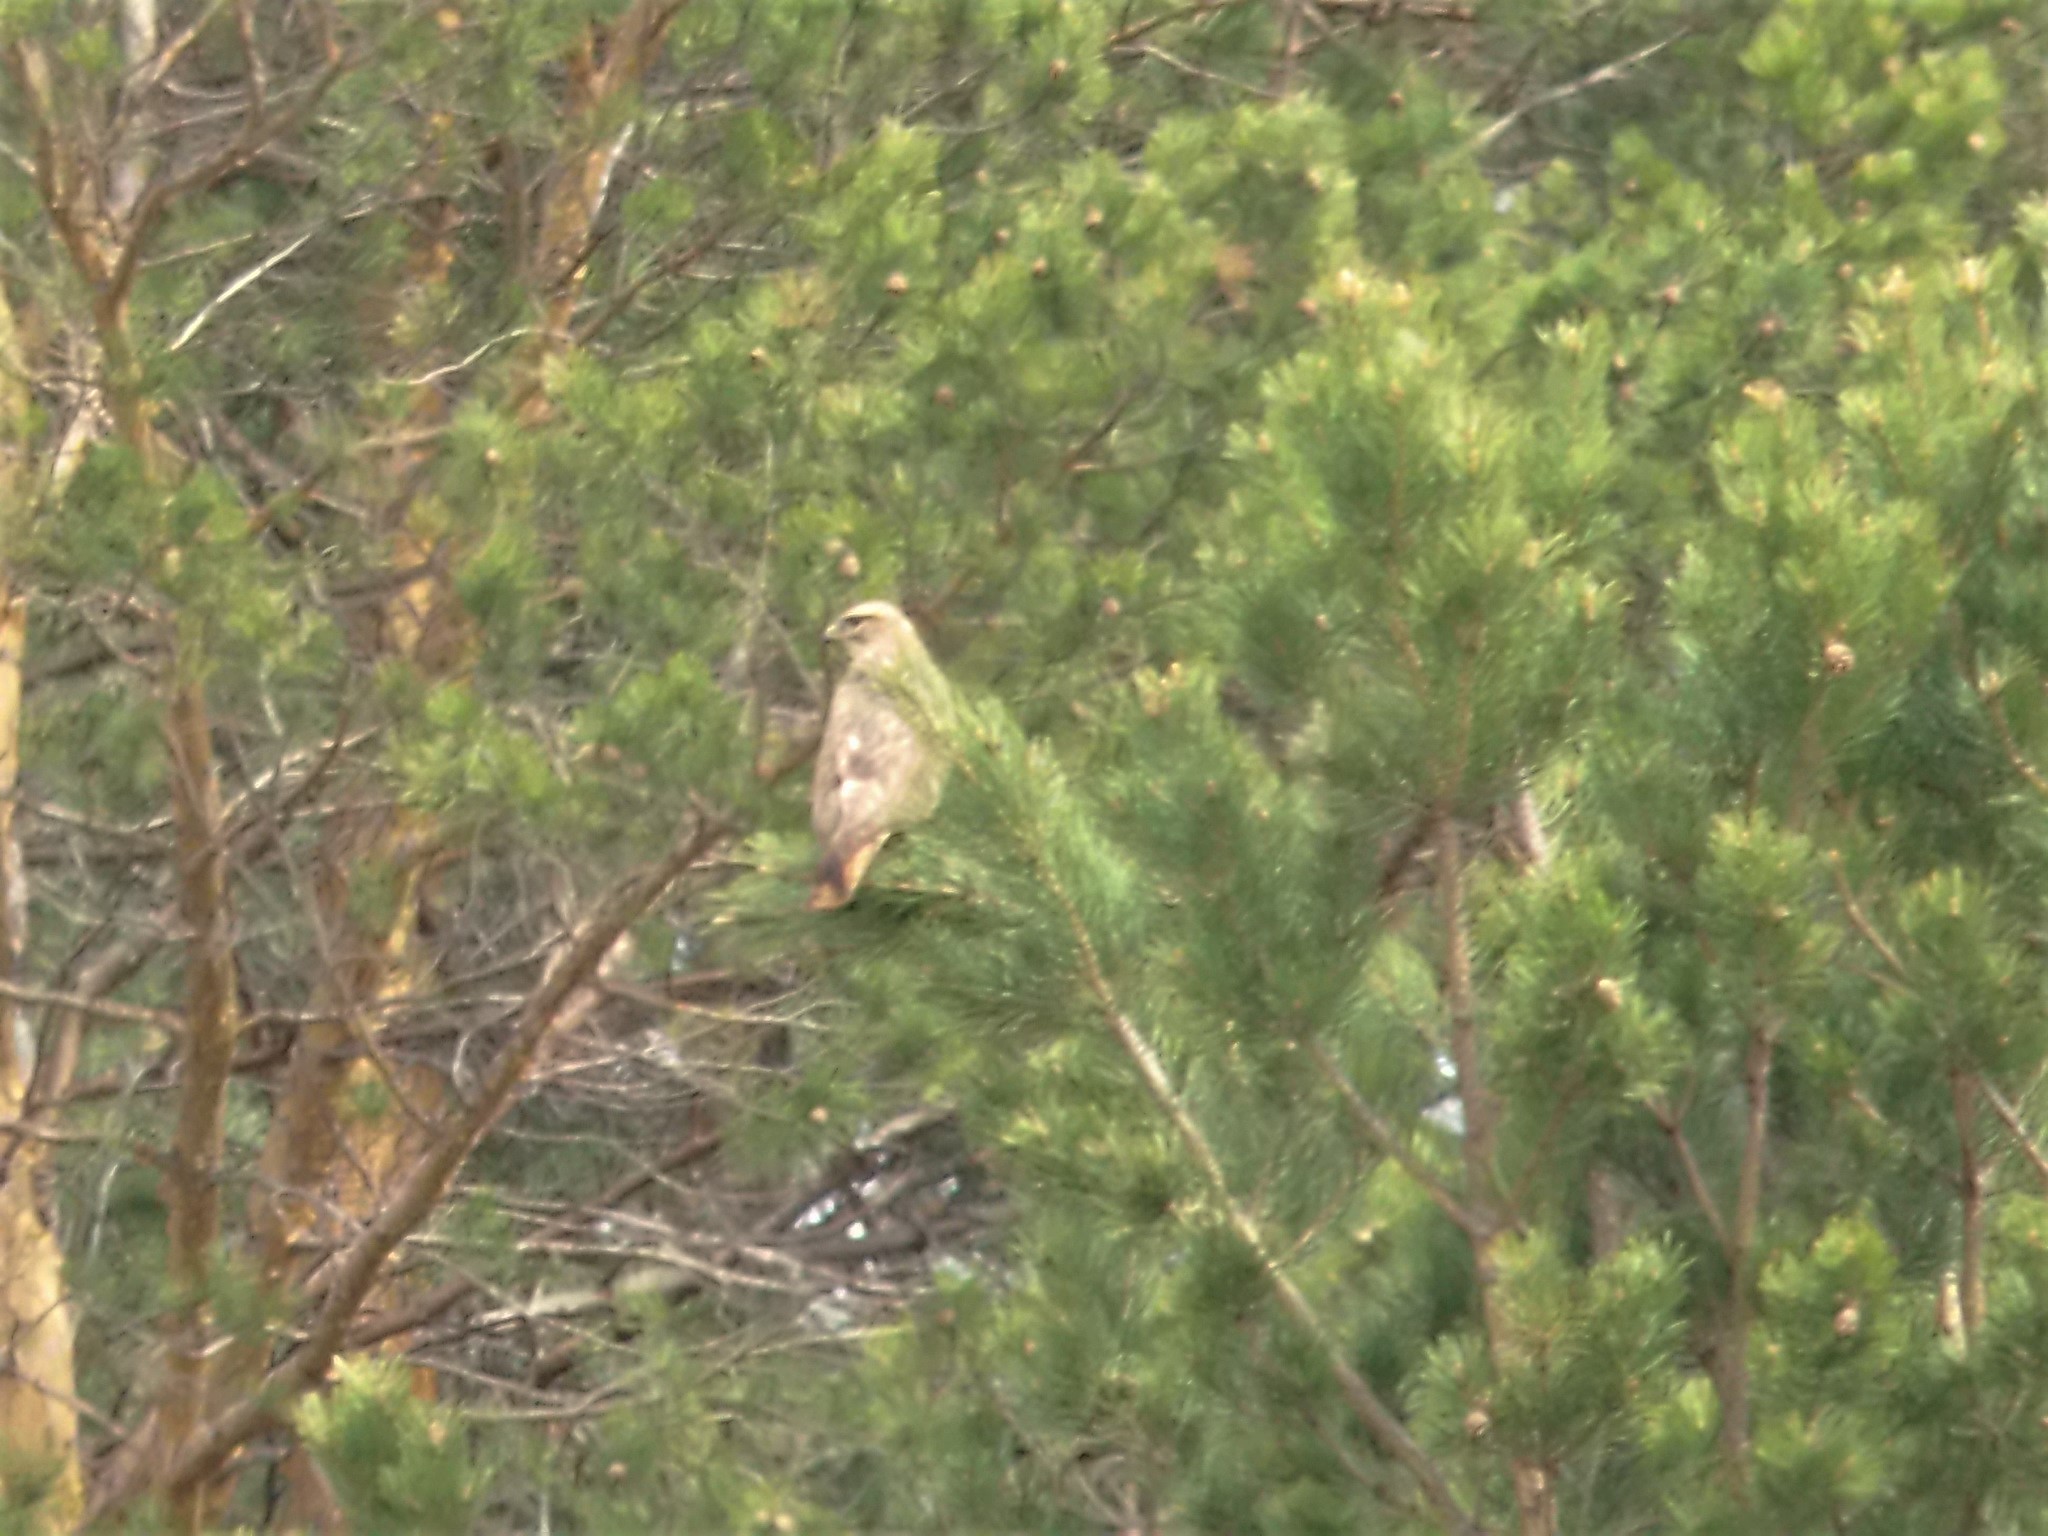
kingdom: Animalia
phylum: Chordata
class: Aves
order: Accipitriformes
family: Accipitridae
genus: Buteo
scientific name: Buteo buteo
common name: Common buzzard
